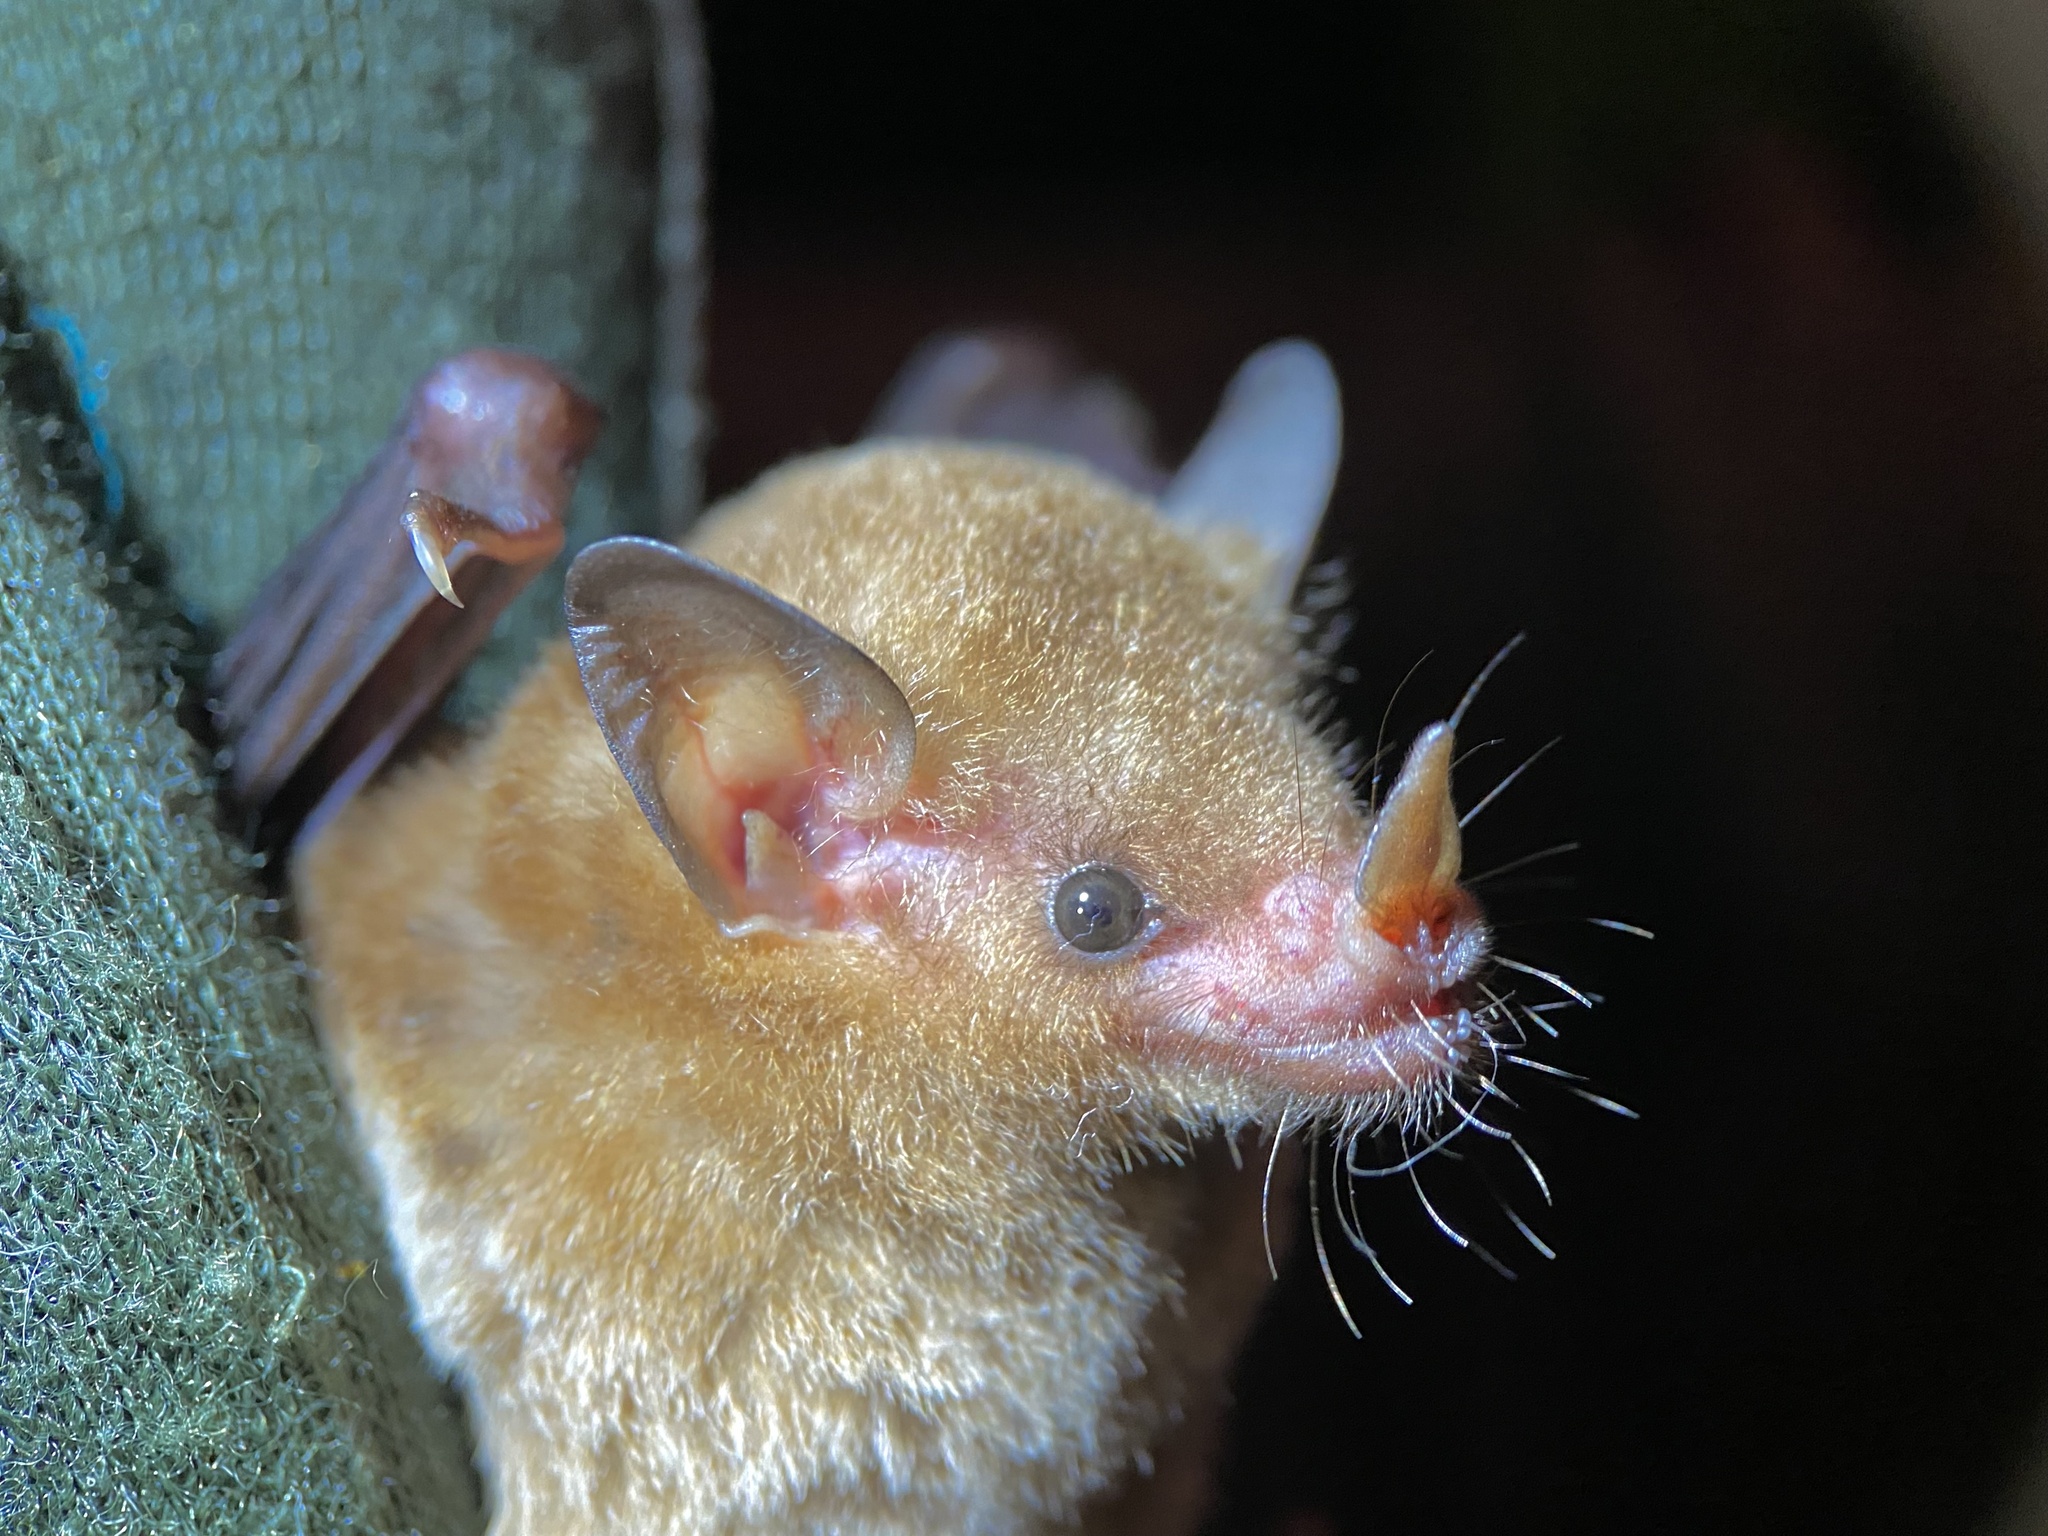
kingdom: Animalia
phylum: Chordata
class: Mammalia
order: Chiroptera
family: Phyllostomidae
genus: Glossophaga
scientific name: Glossophaga soricina
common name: Pallas's long-tongued bat
